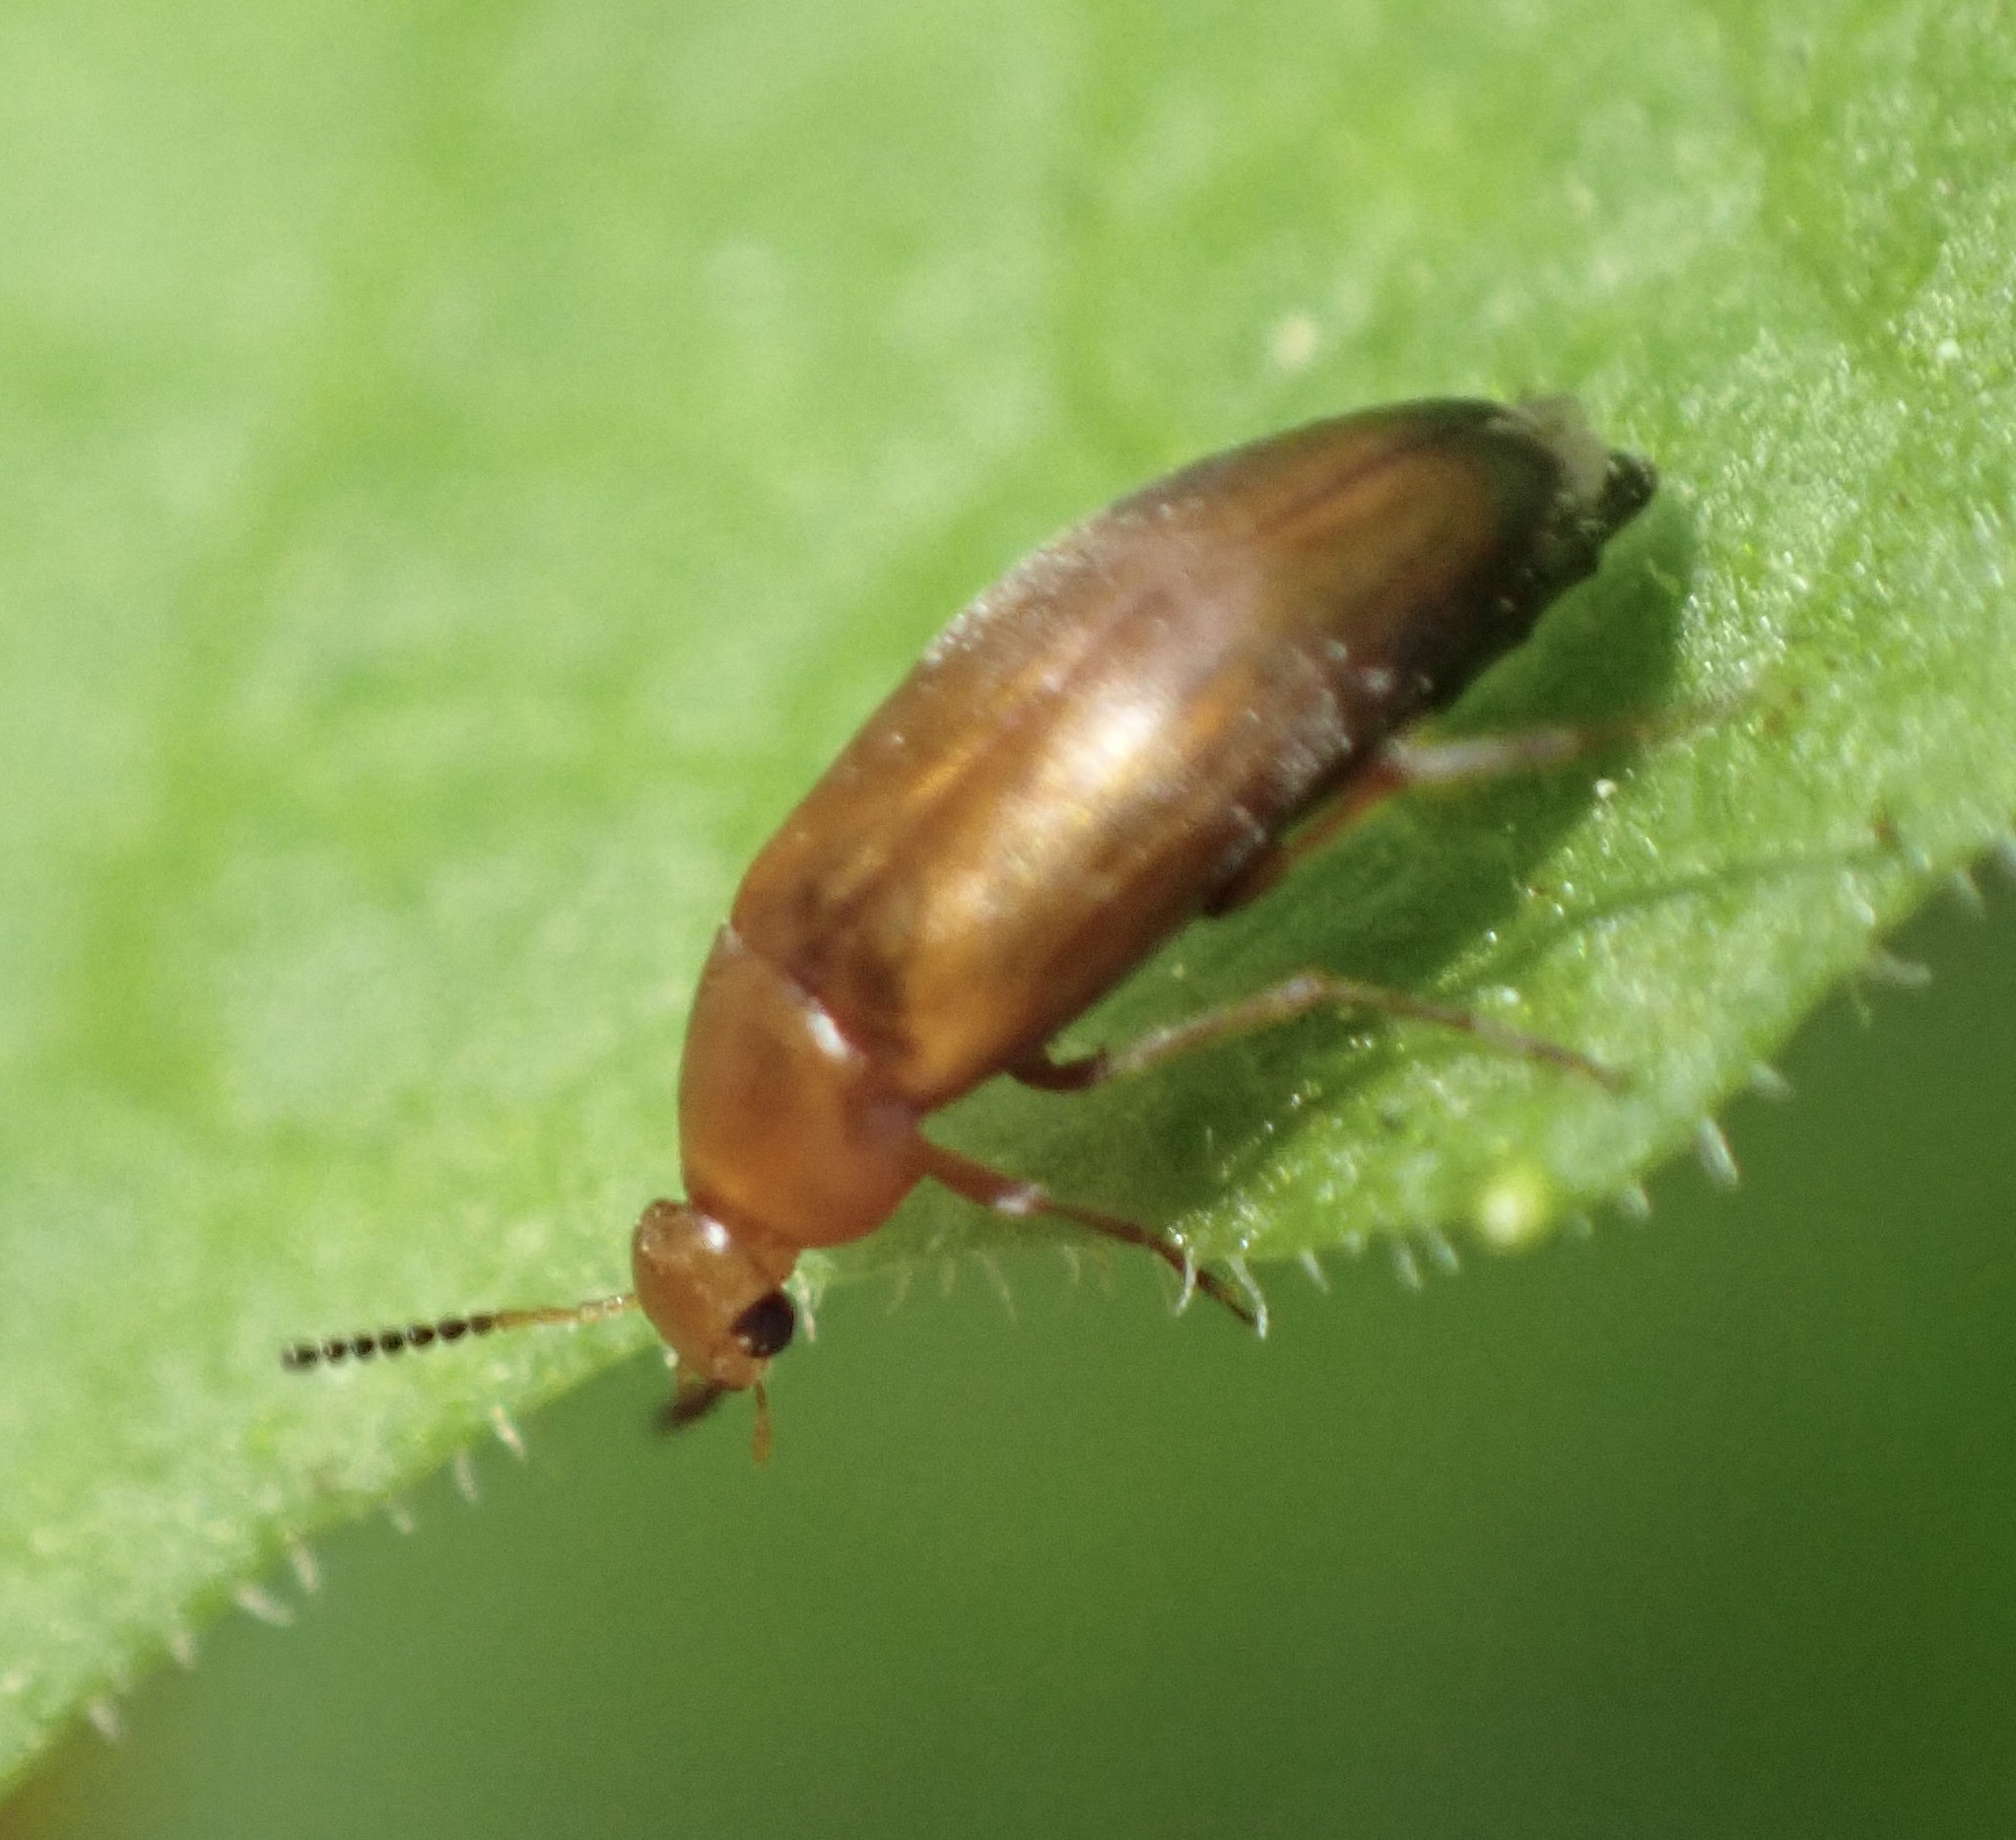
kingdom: Animalia
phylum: Arthropoda
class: Insecta
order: Coleoptera
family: Scraptiidae
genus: Anaspis
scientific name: Anaspis flava
